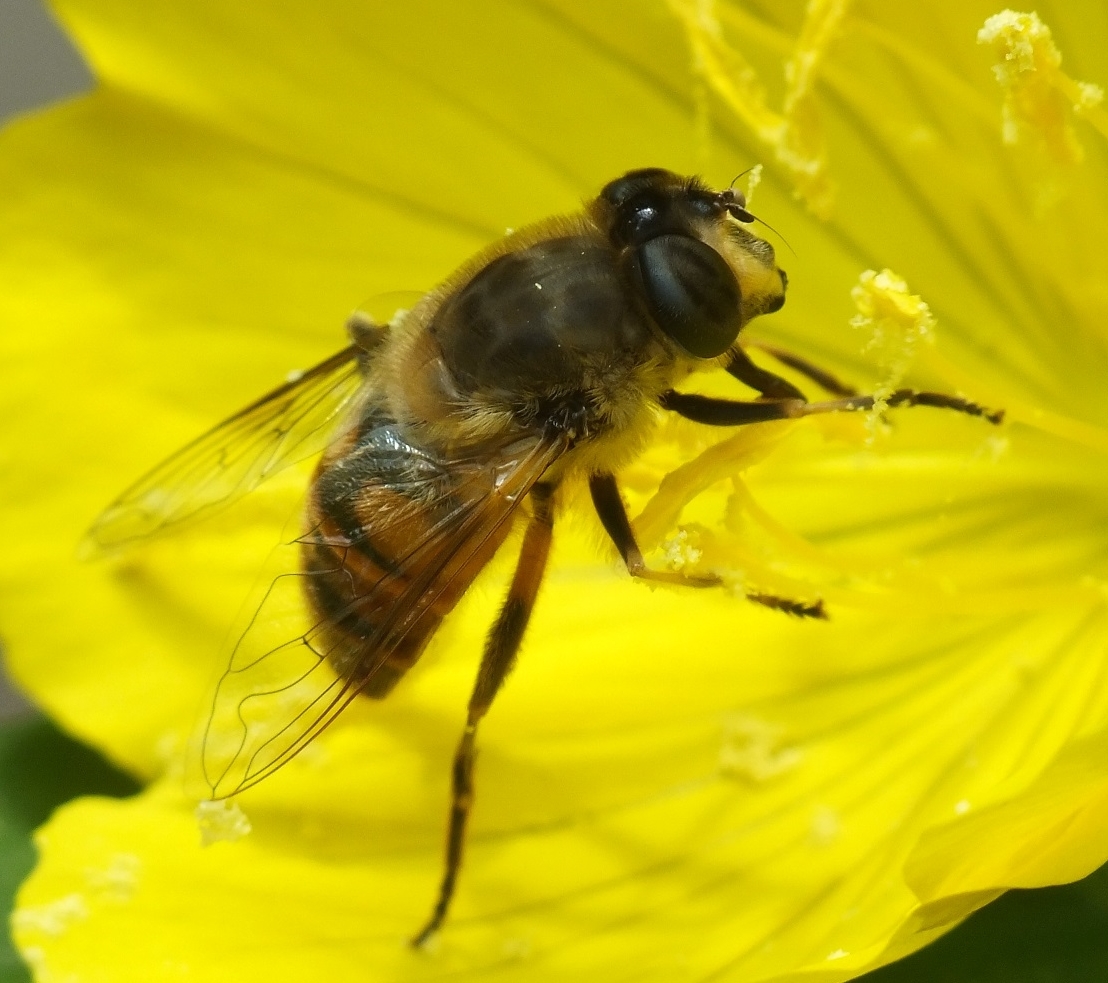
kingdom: Animalia
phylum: Arthropoda
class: Insecta
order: Diptera
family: Syrphidae
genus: Eristalis
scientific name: Eristalis tenax
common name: Drone fly
